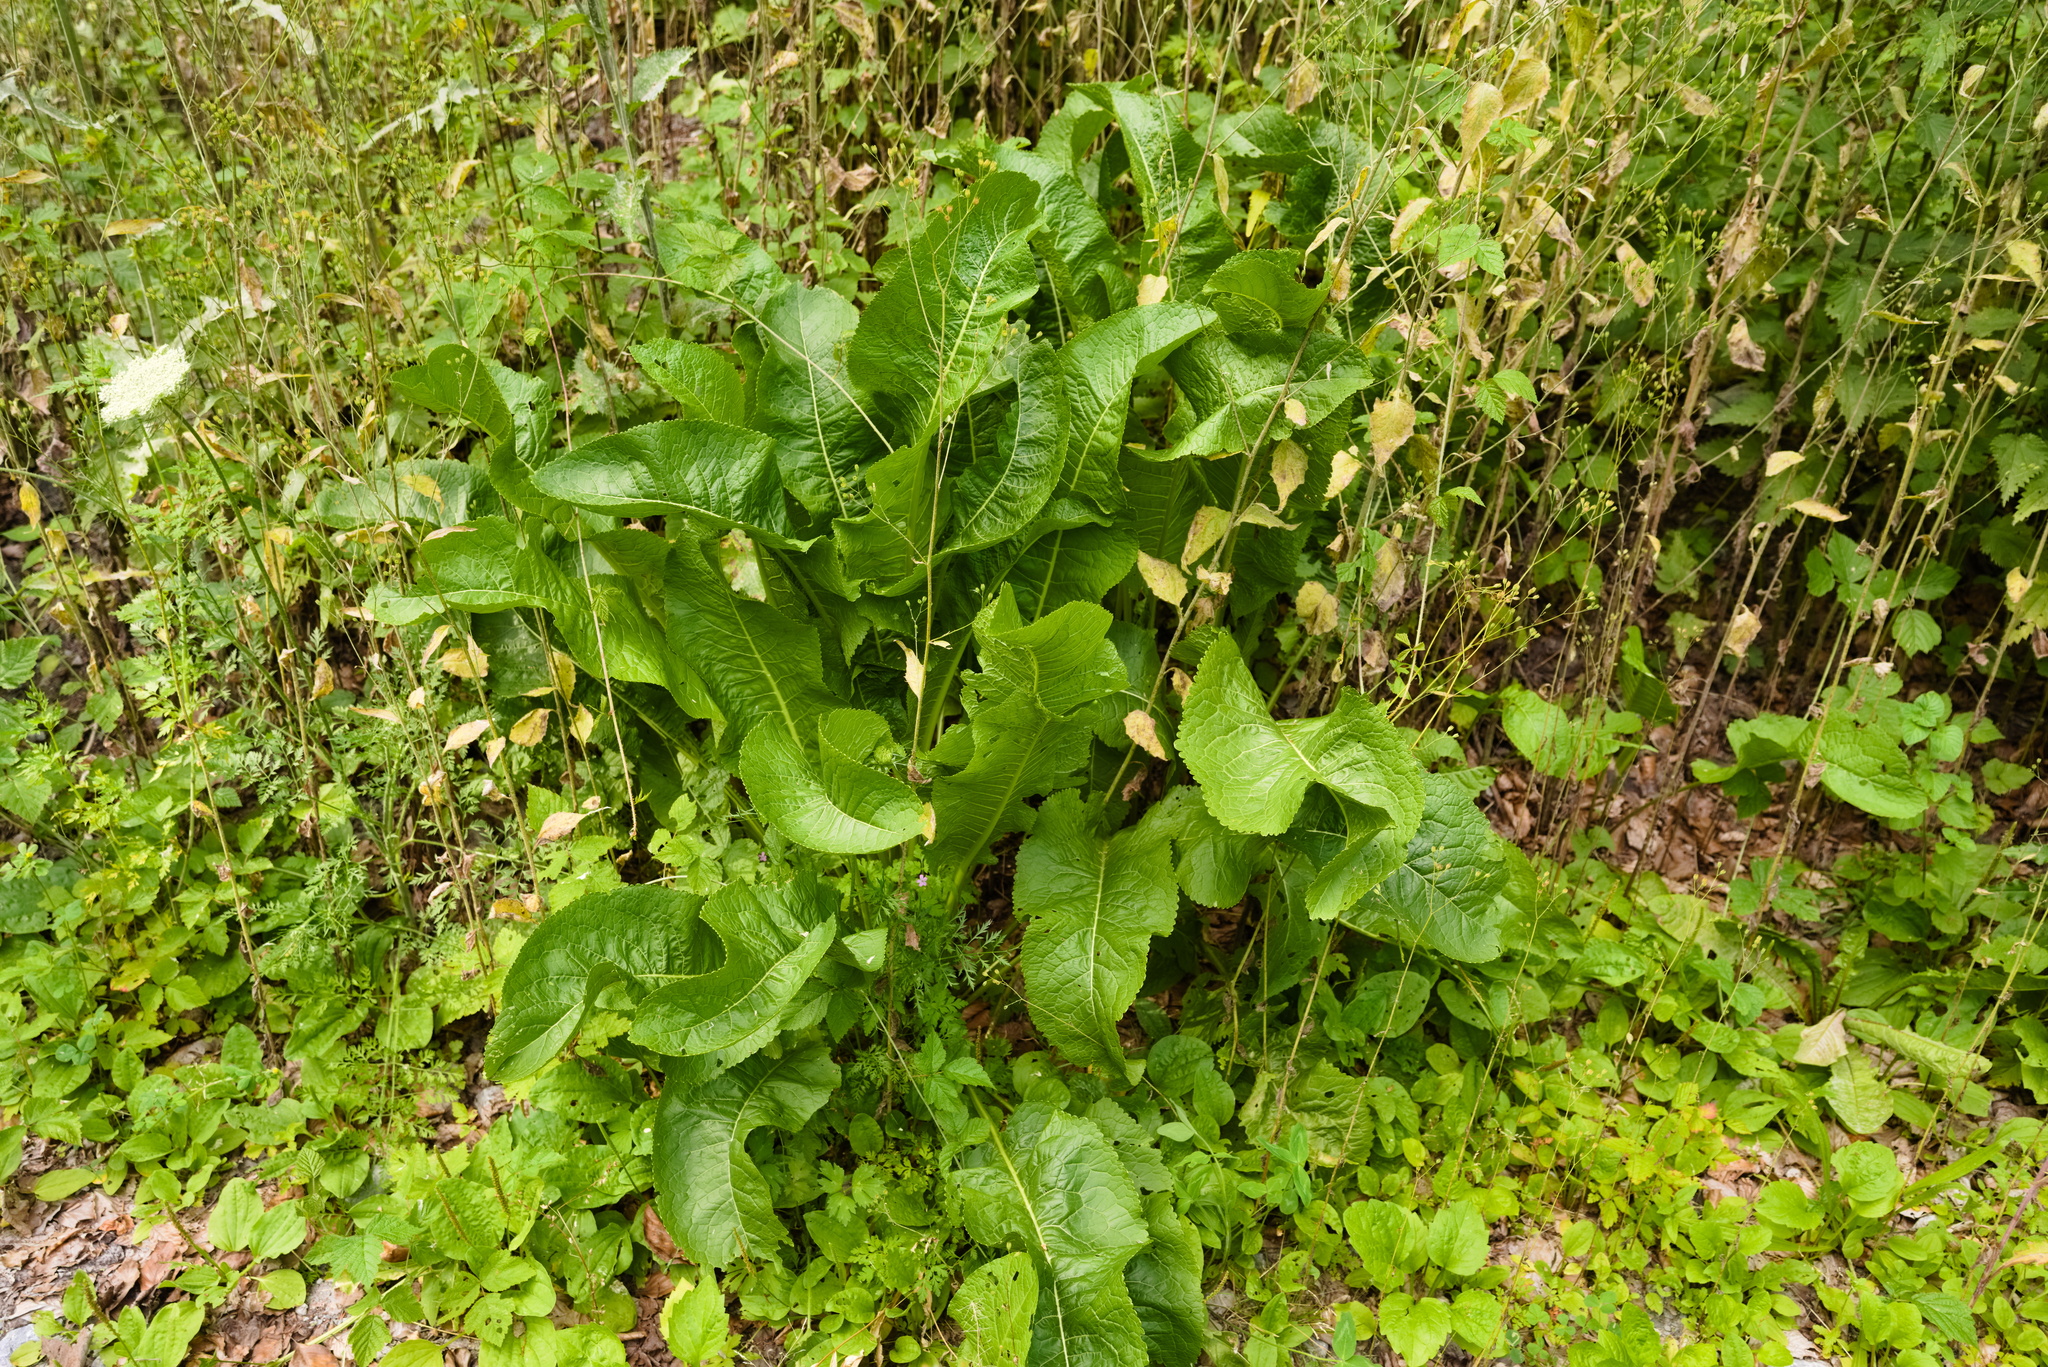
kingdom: Plantae
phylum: Tracheophyta
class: Magnoliopsida
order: Brassicales
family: Brassicaceae
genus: Armoracia
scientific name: Armoracia rusticana
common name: Horseradish
